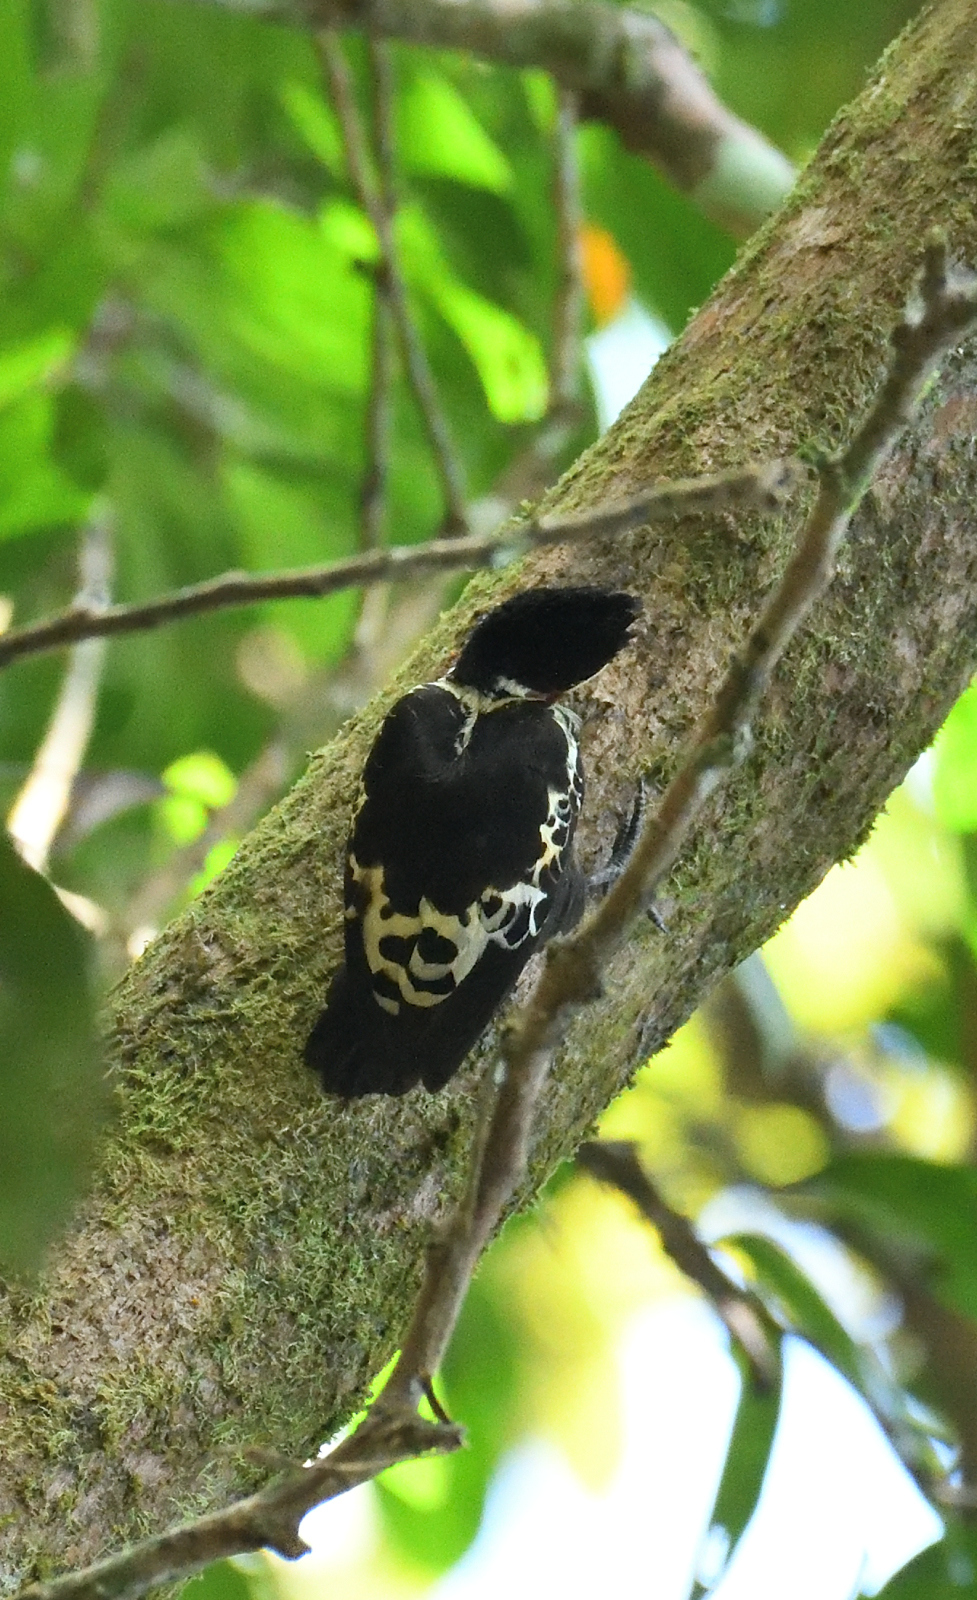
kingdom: Animalia
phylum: Chordata
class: Aves
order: Piciformes
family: Picidae
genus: Hemicircus
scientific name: Hemicircus canente
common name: Heart-spotted woodpecker
